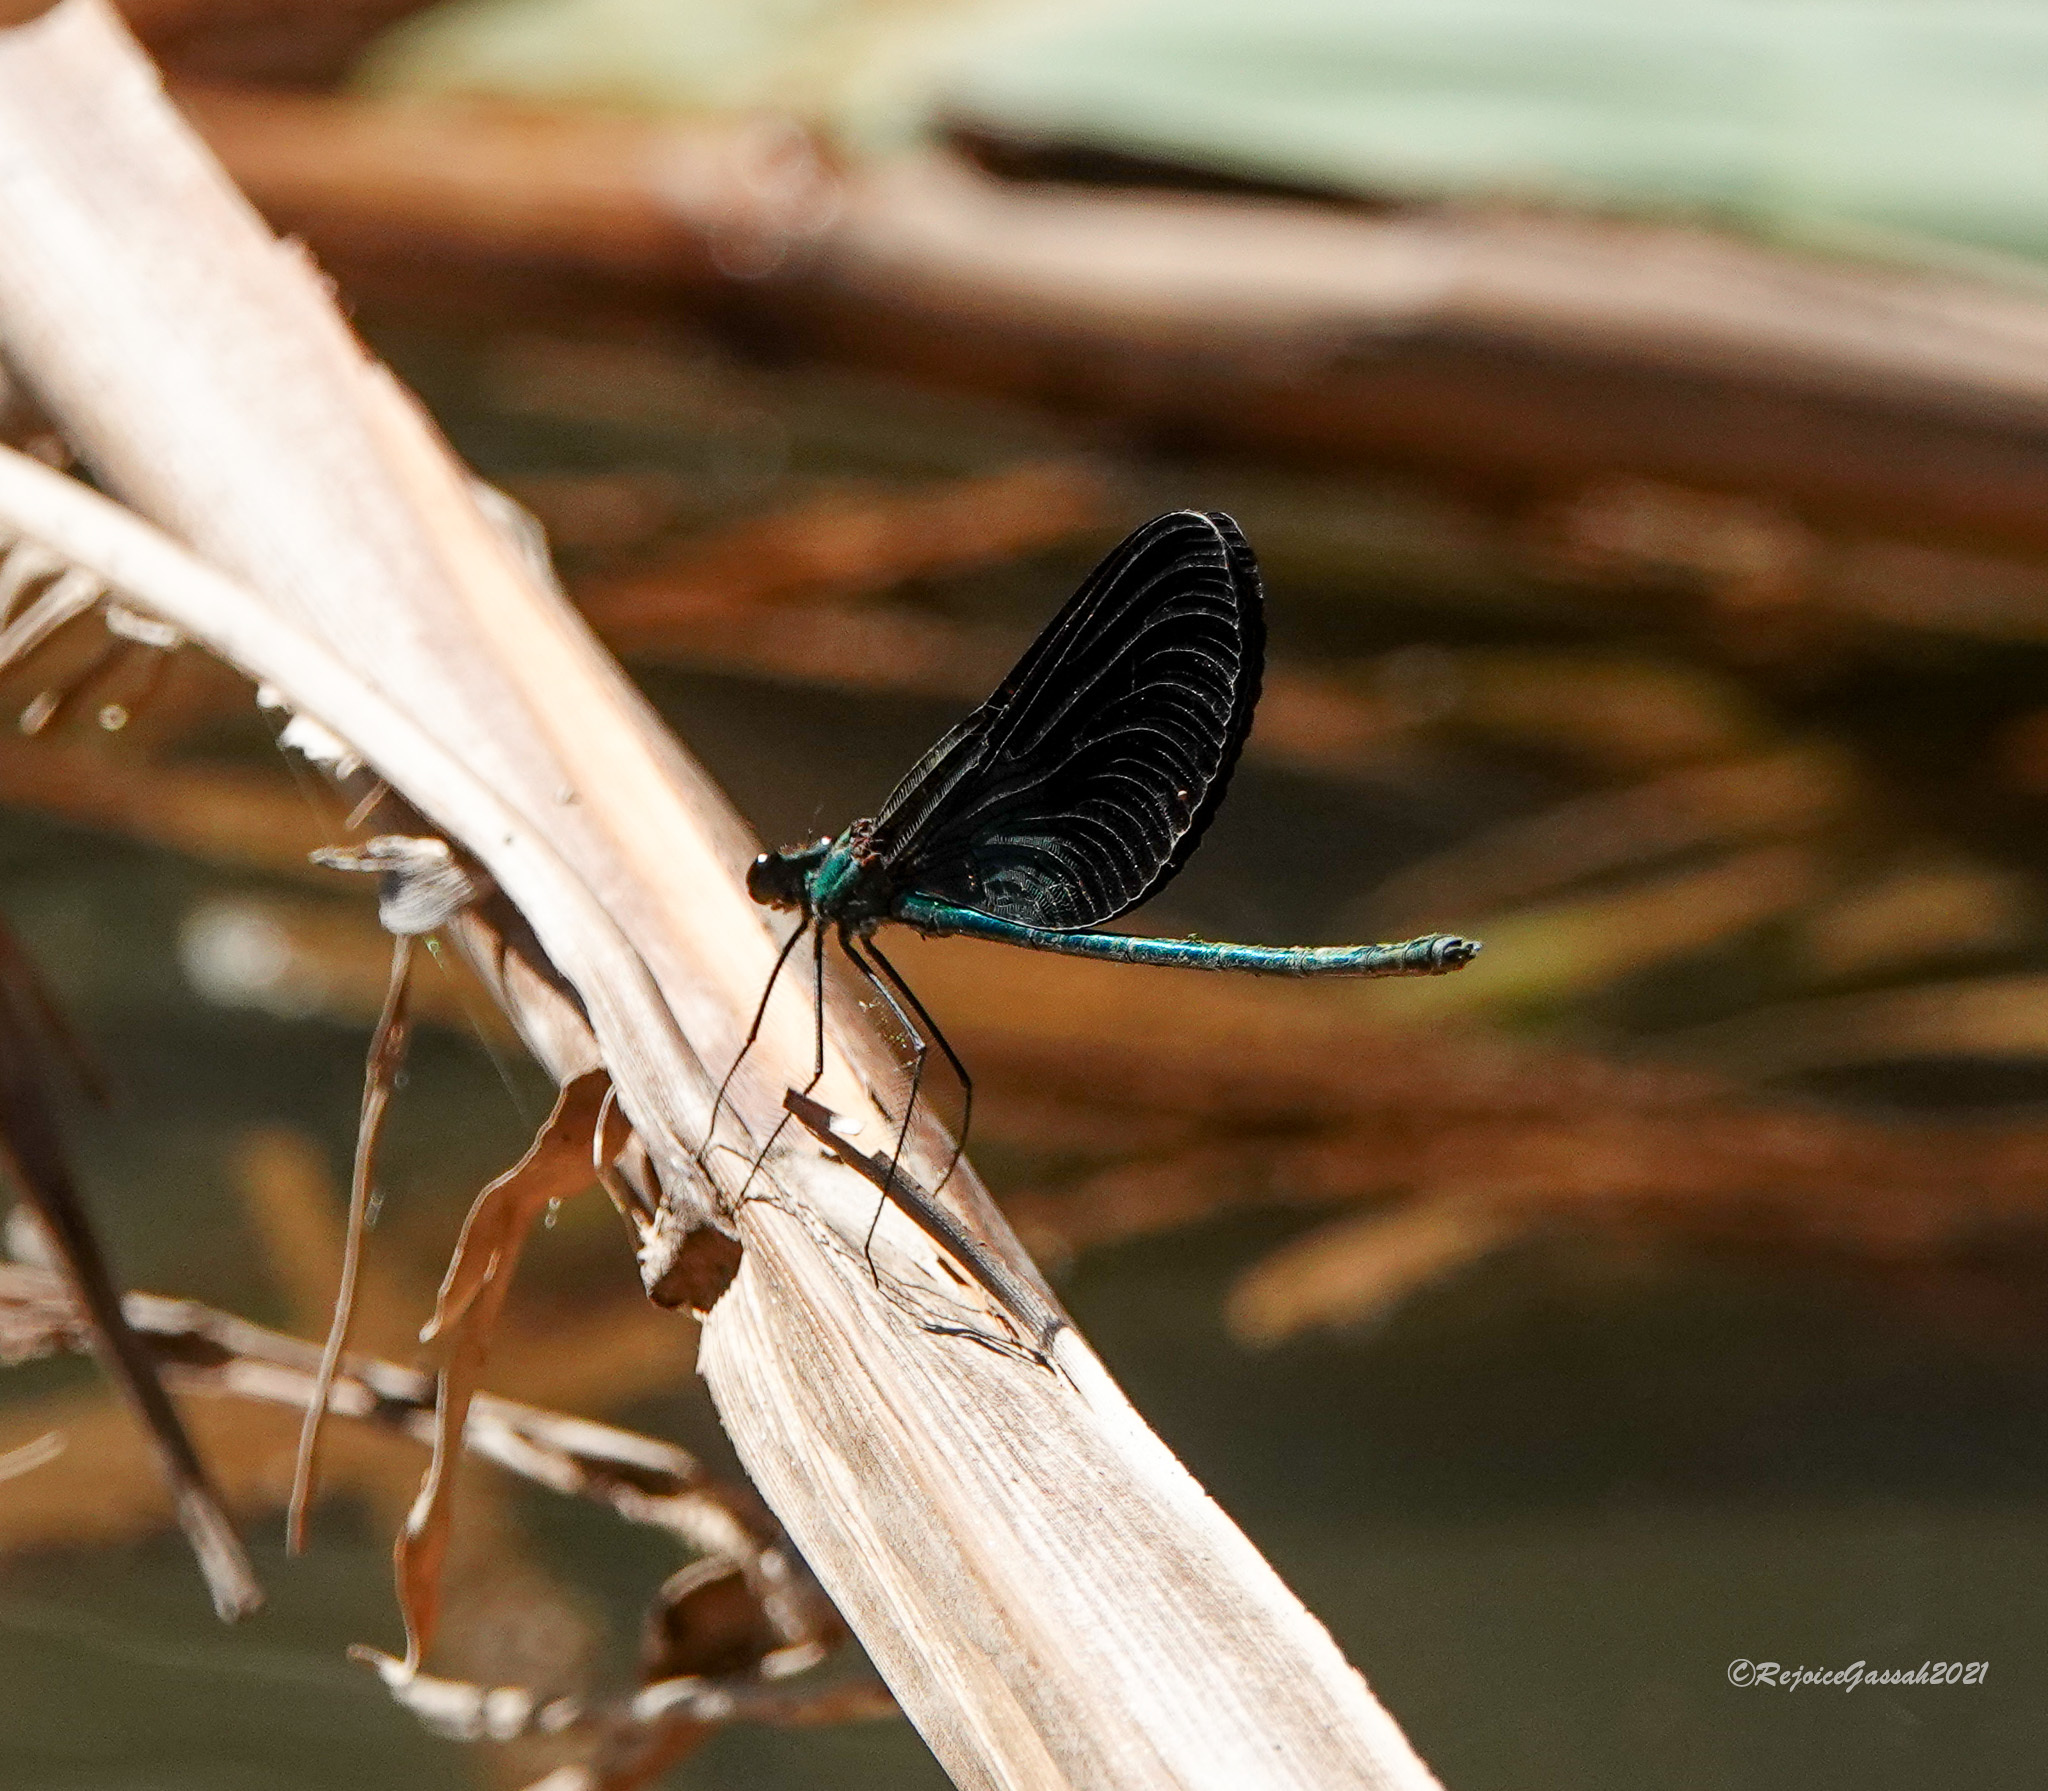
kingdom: Animalia
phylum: Arthropoda
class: Insecta
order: Odonata
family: Calopterygidae
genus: Matrona
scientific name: Matrona nigripectus
